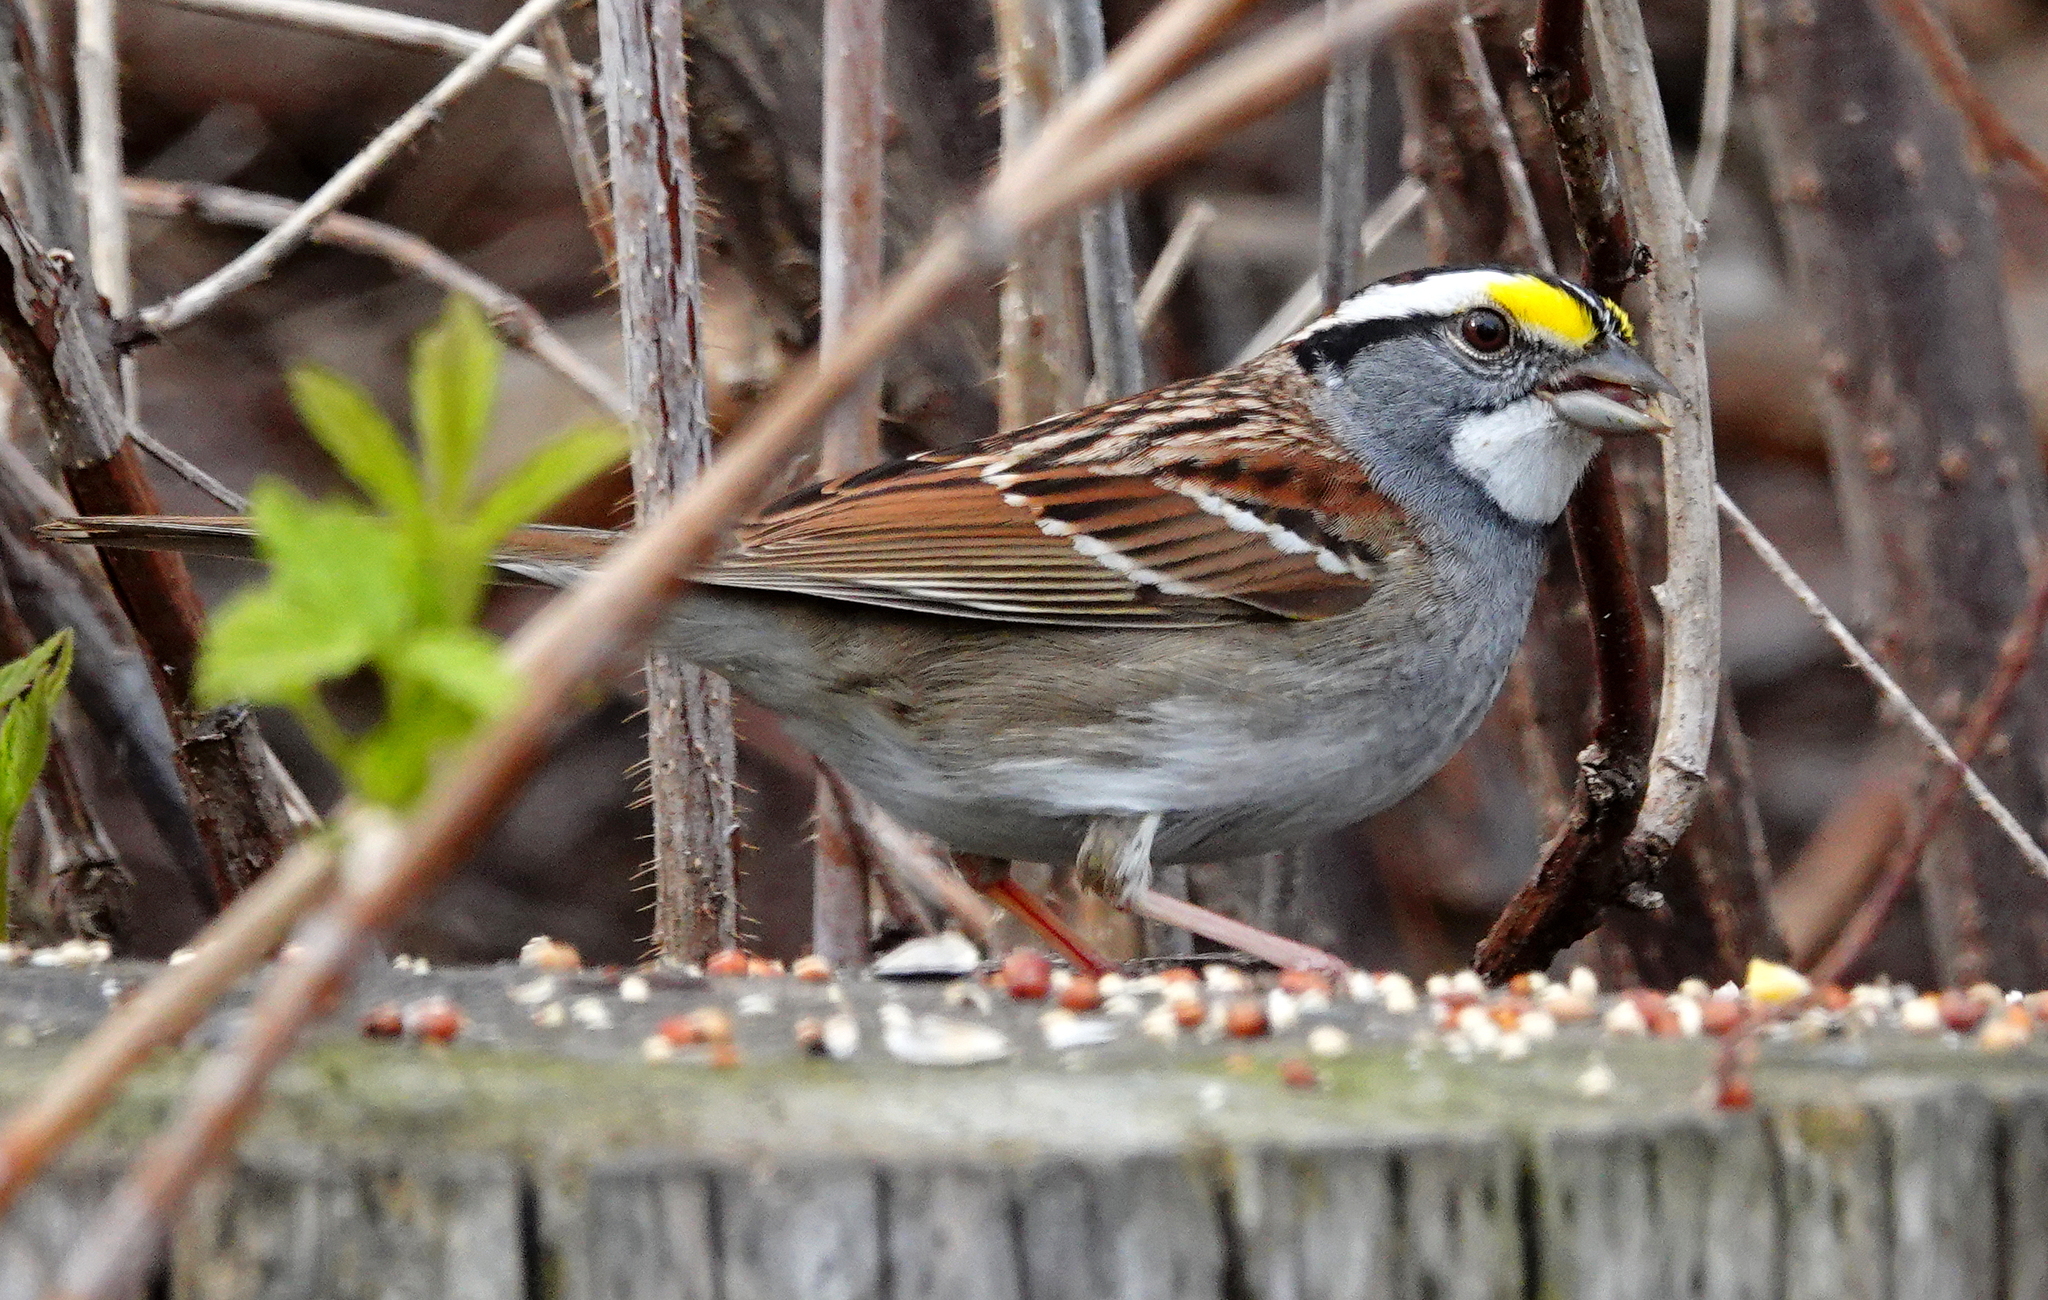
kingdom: Animalia
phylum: Chordata
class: Aves
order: Passeriformes
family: Passerellidae
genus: Zonotrichia
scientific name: Zonotrichia albicollis
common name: White-throated sparrow
